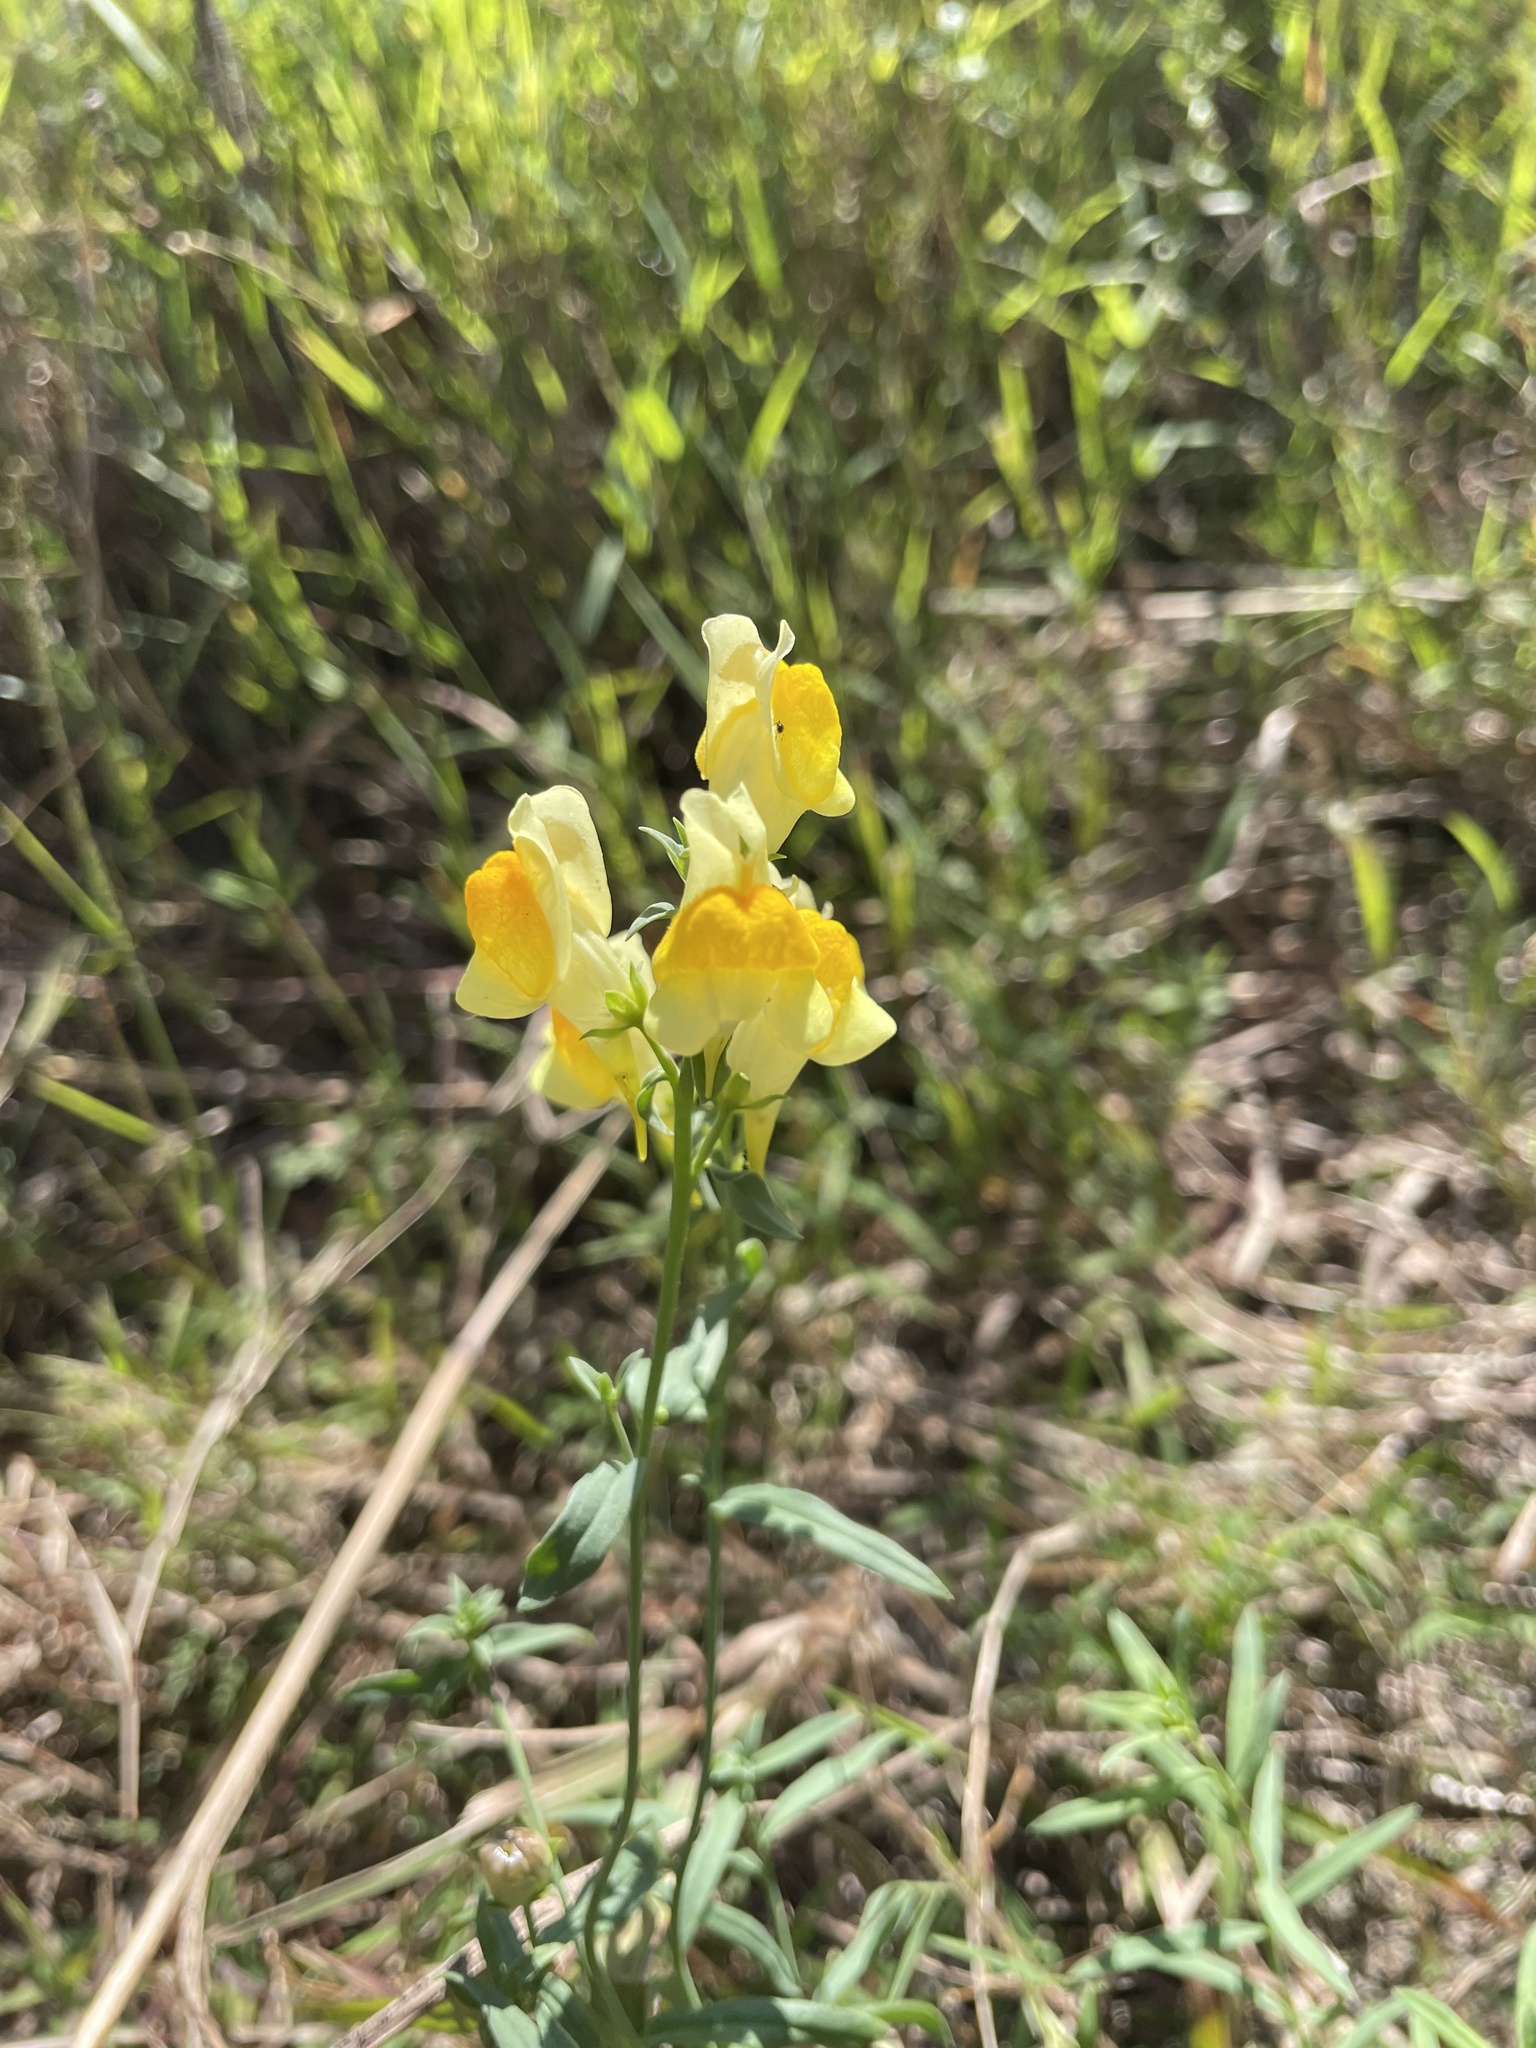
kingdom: Plantae
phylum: Tracheophyta
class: Magnoliopsida
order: Lamiales
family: Plantaginaceae
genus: Linaria
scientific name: Linaria vulgaris
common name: Butter and eggs
